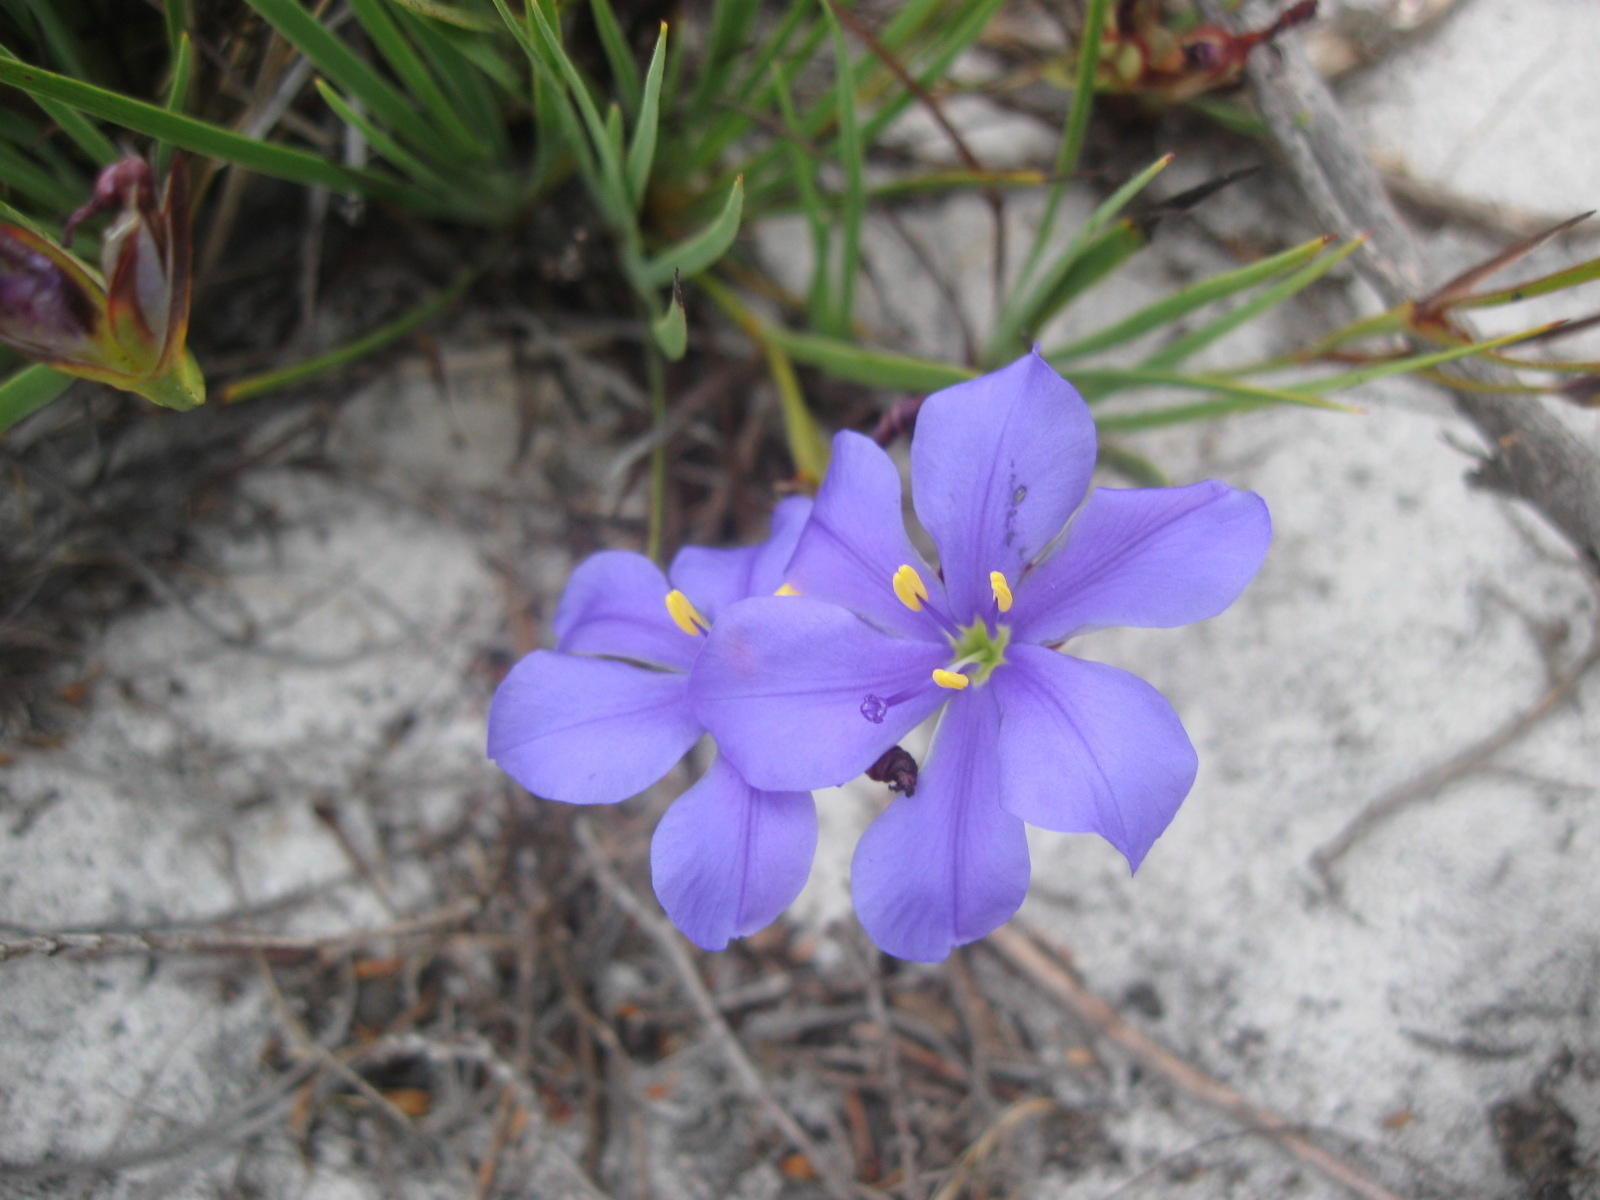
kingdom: Plantae
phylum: Tracheophyta
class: Liliopsida
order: Asparagales
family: Iridaceae
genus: Aristea
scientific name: Aristea glauca
